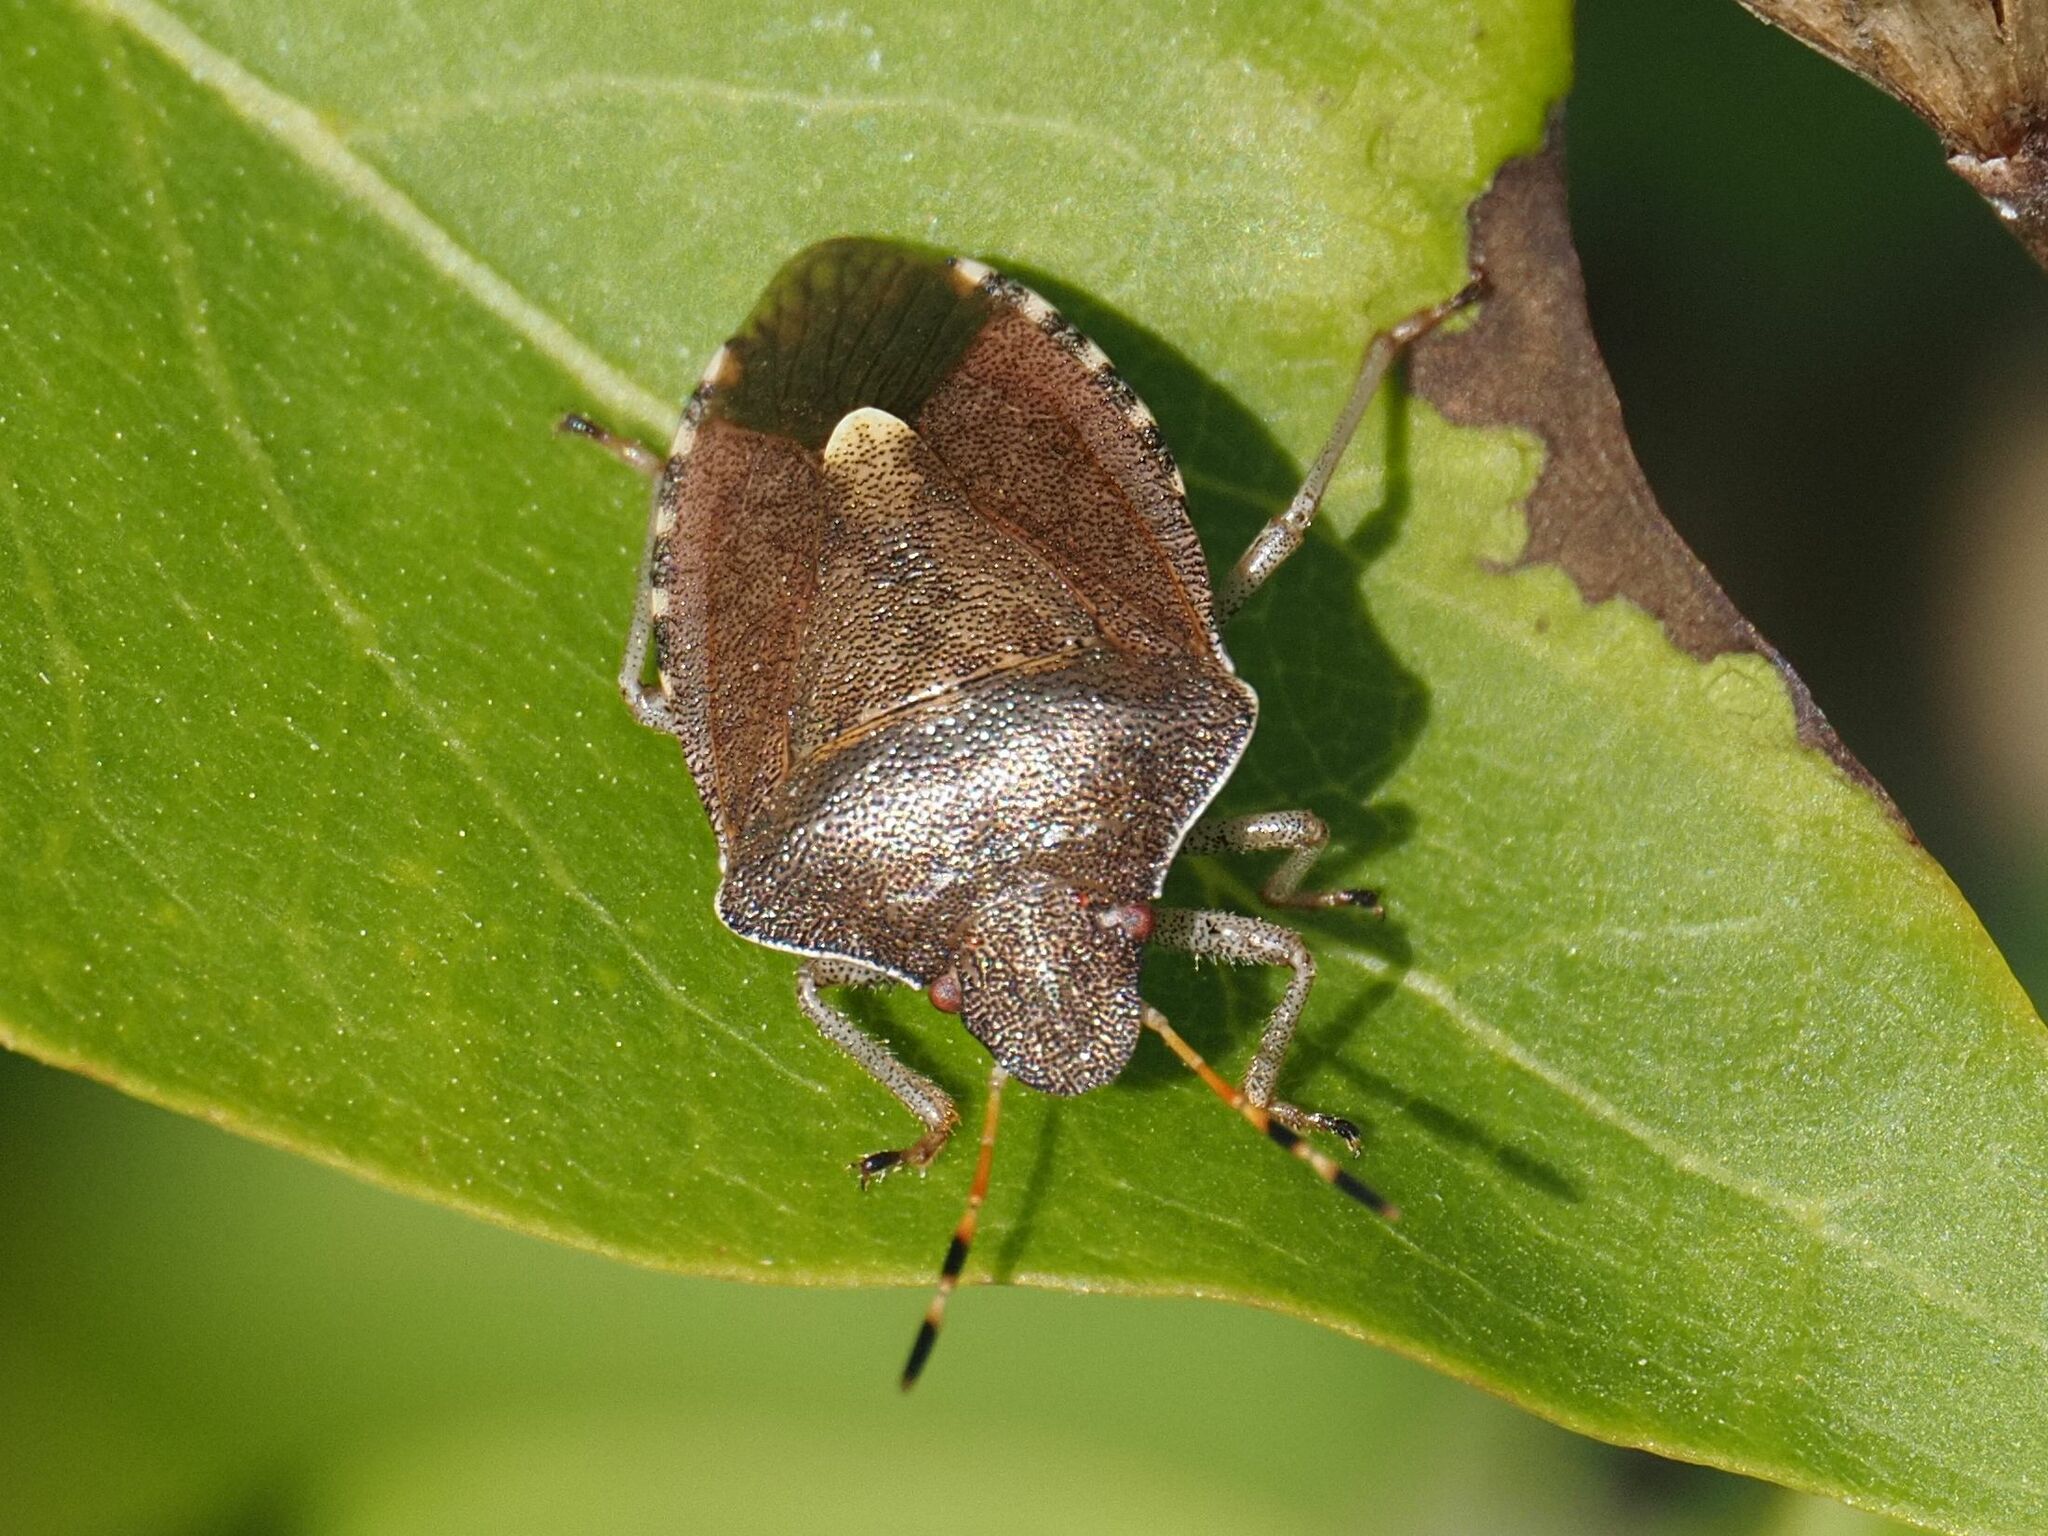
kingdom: Animalia
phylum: Arthropoda
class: Insecta
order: Hemiptera
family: Pentatomidae
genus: Holcostethus
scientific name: Holcostethus strictus
